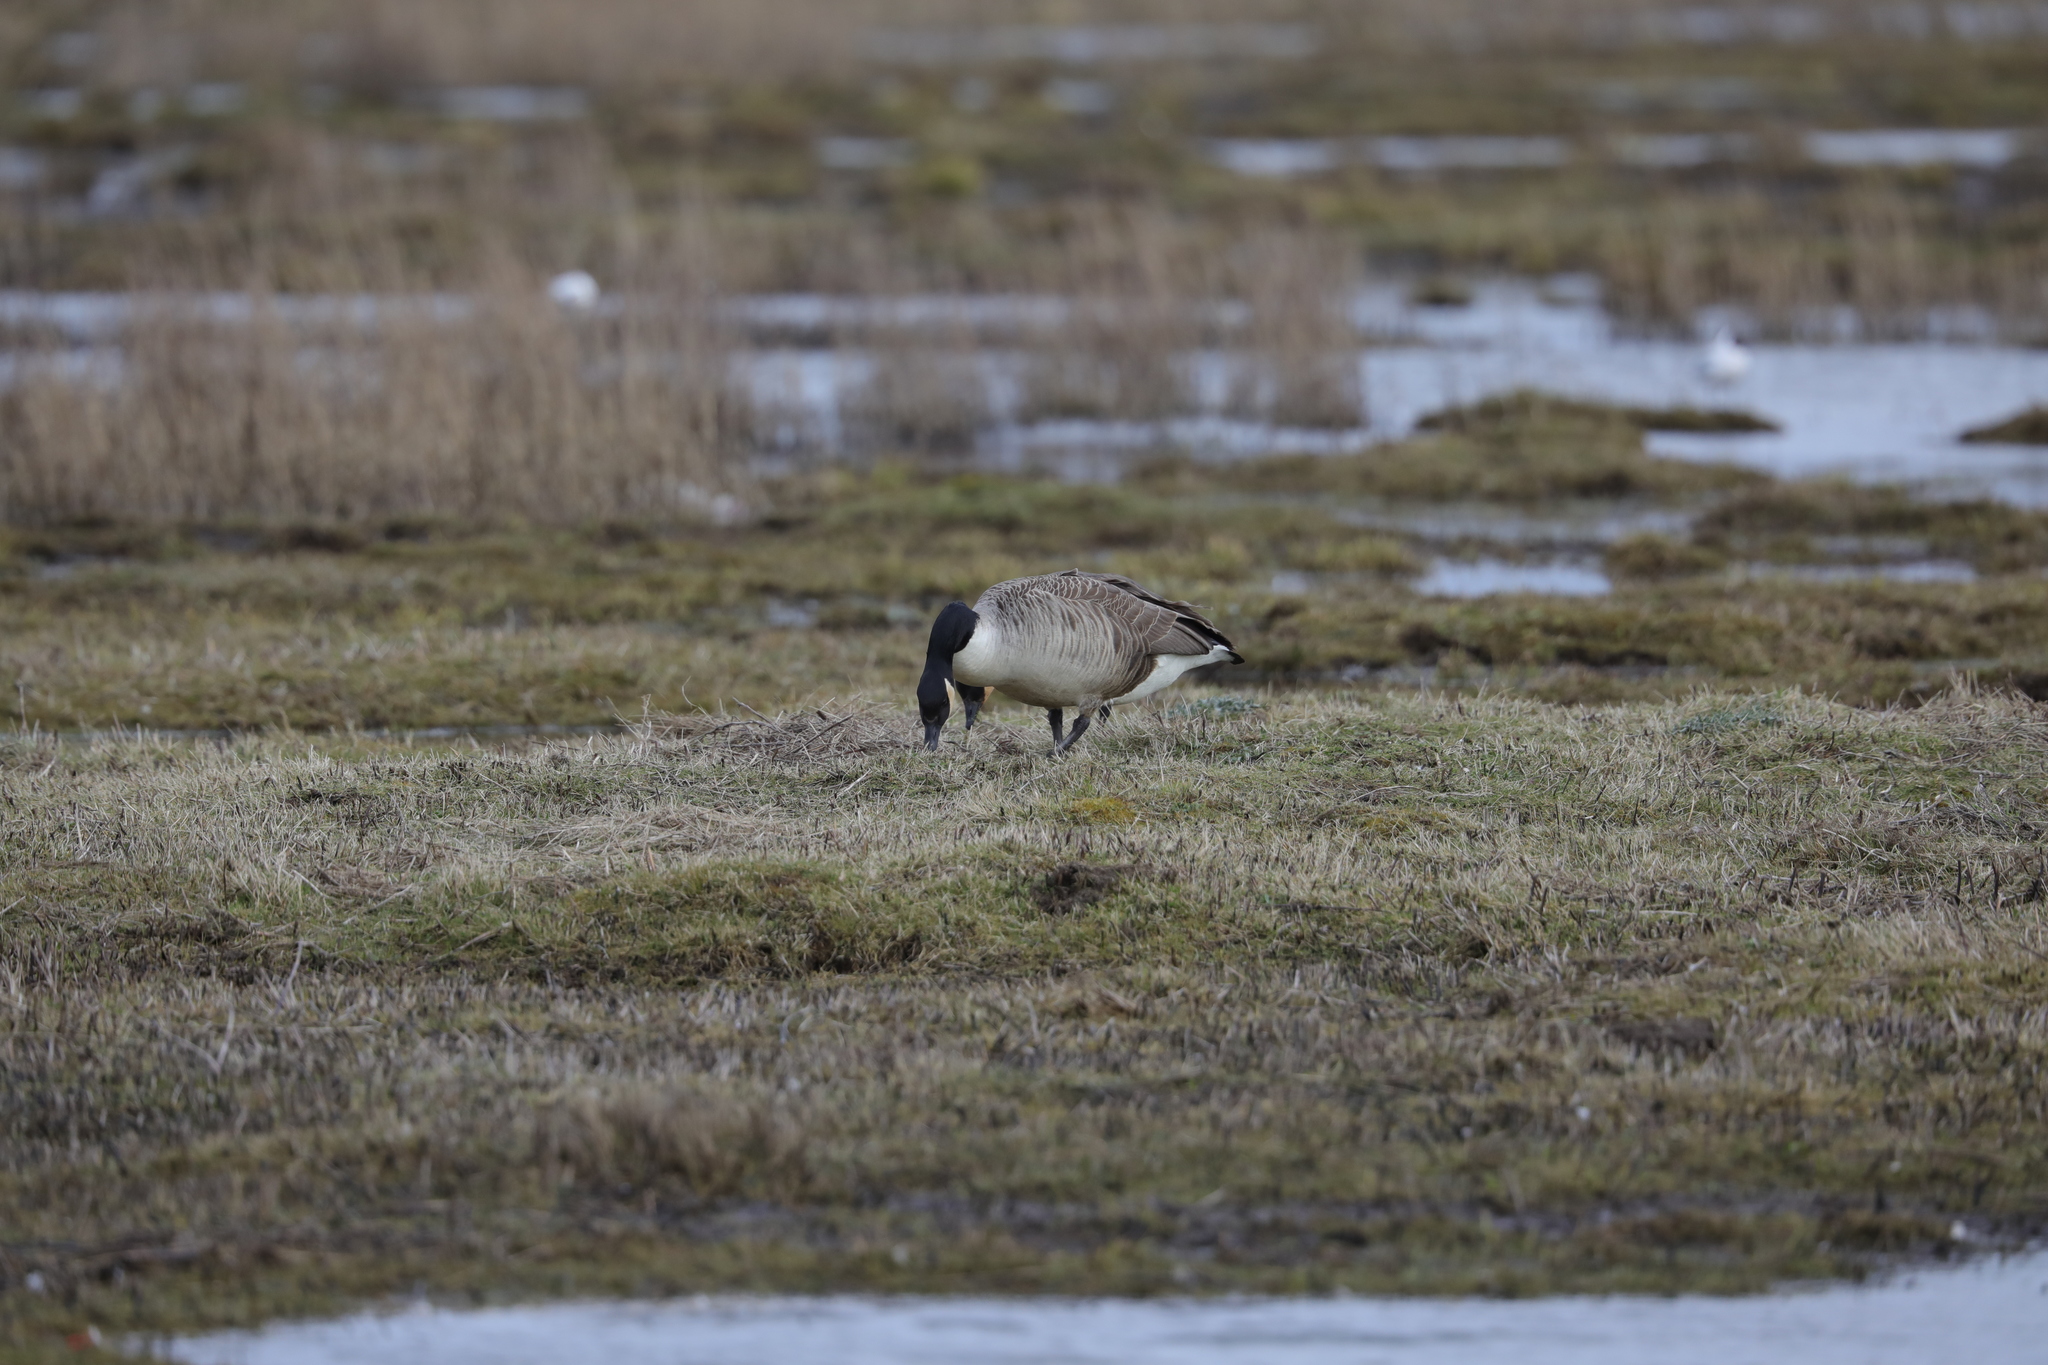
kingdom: Animalia
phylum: Chordata
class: Aves
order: Anseriformes
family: Anatidae
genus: Branta
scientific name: Branta canadensis
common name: Canada goose
